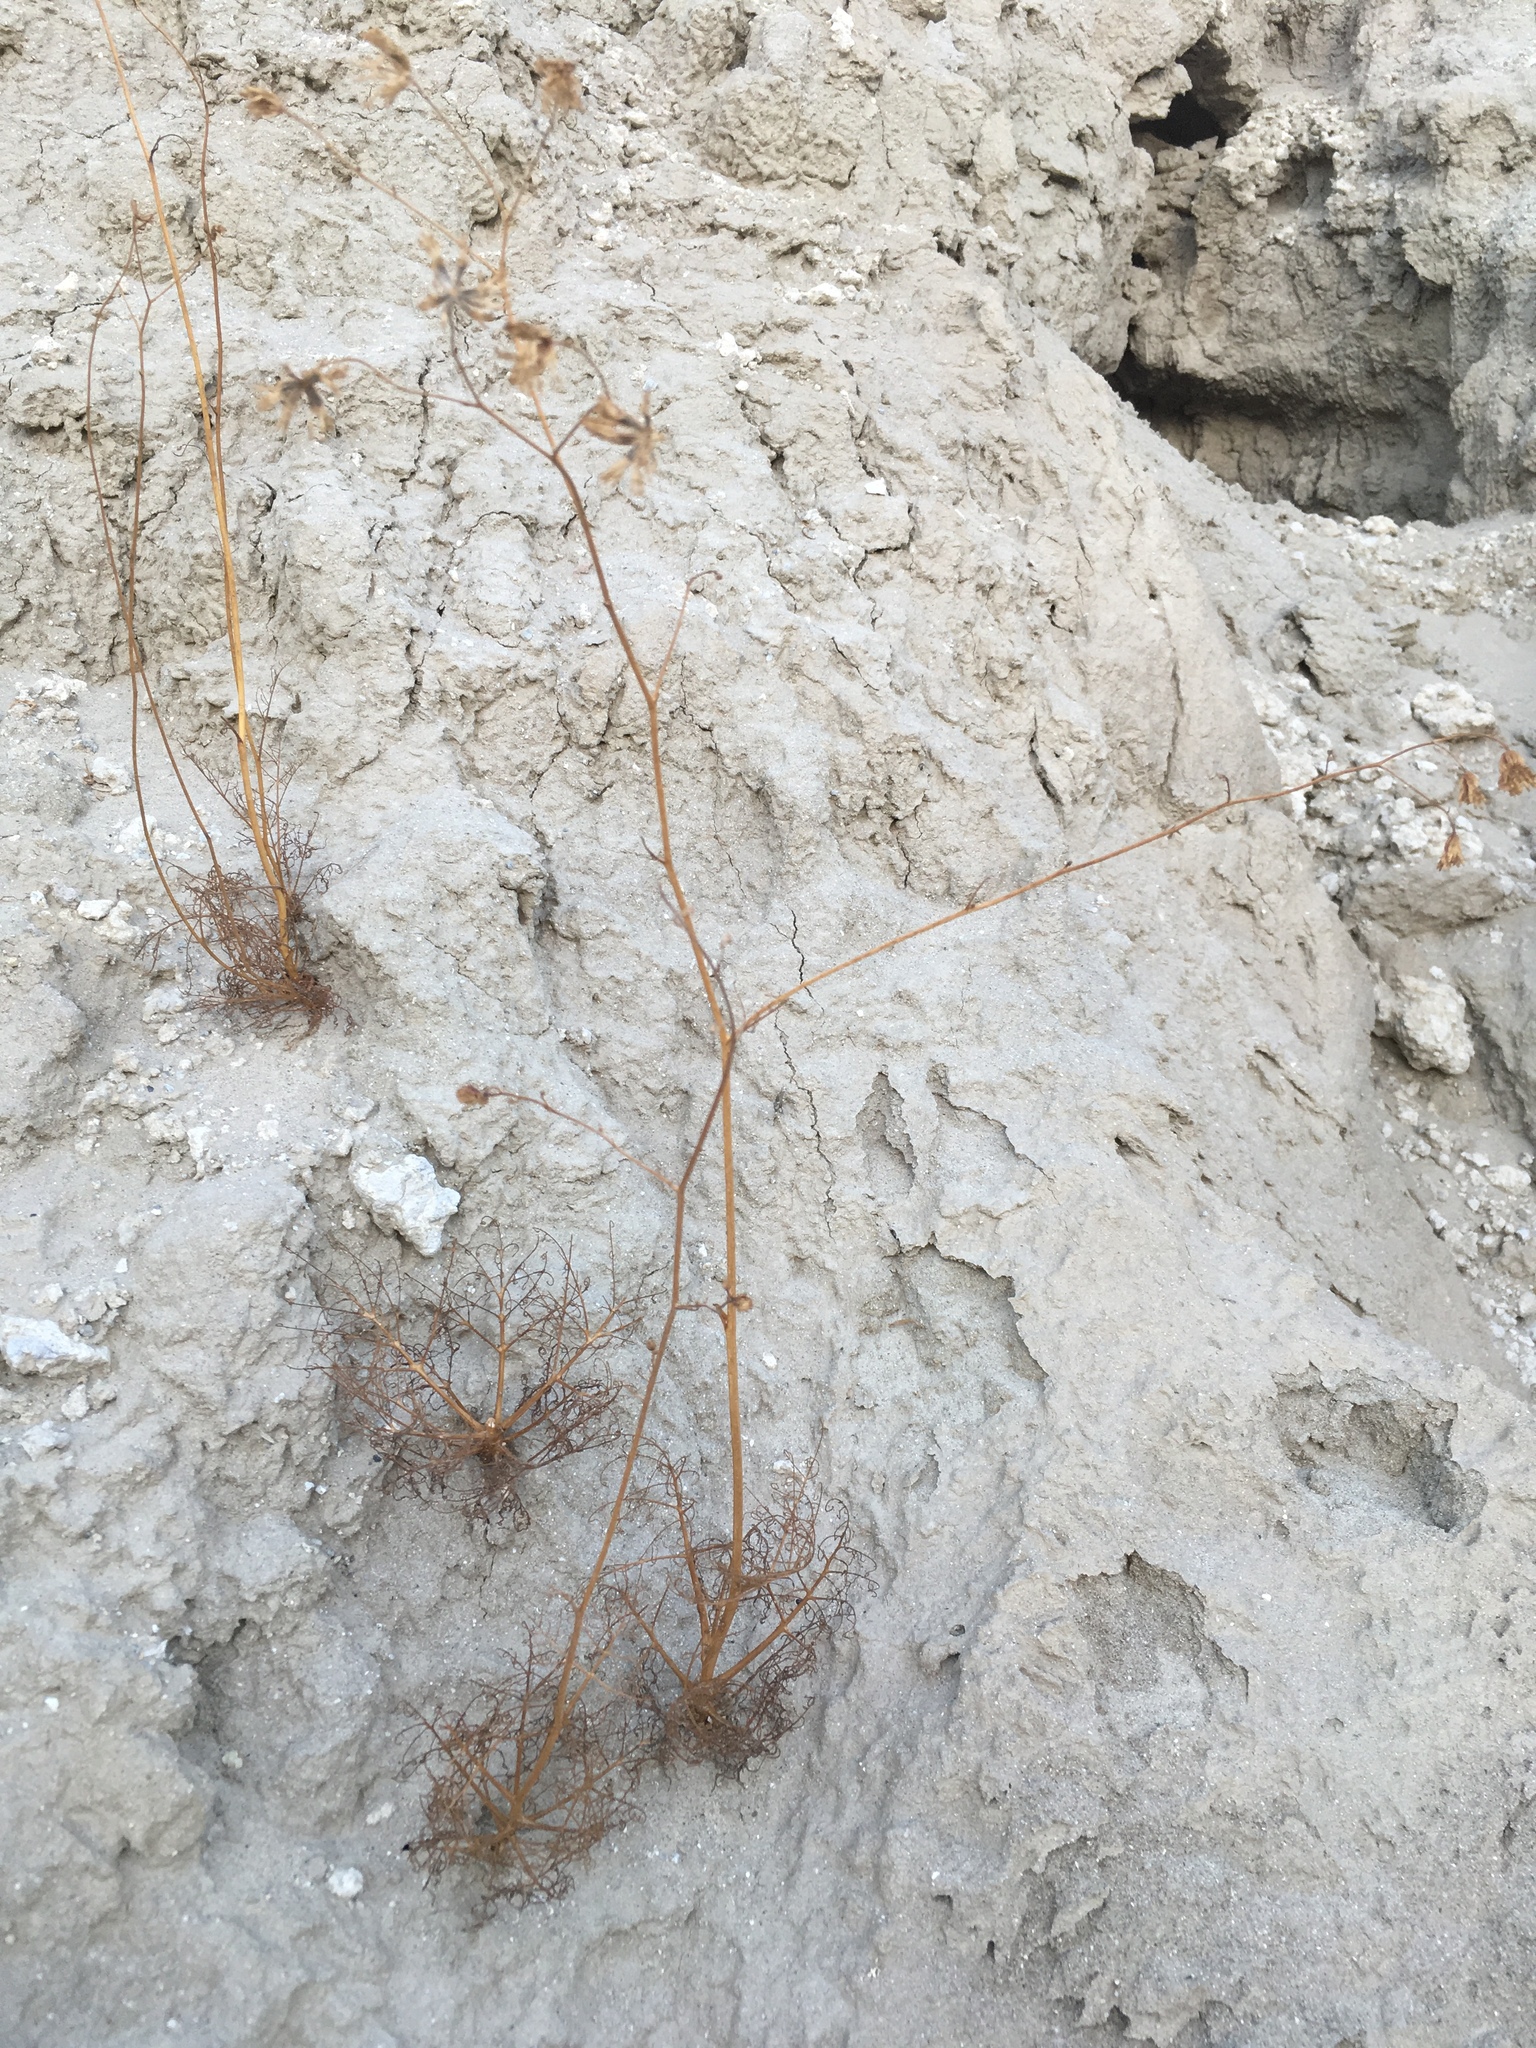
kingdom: Plantae
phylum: Tracheophyta
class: Magnoliopsida
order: Asterales
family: Asteraceae
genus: Chaenactis
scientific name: Chaenactis carphoclinia
